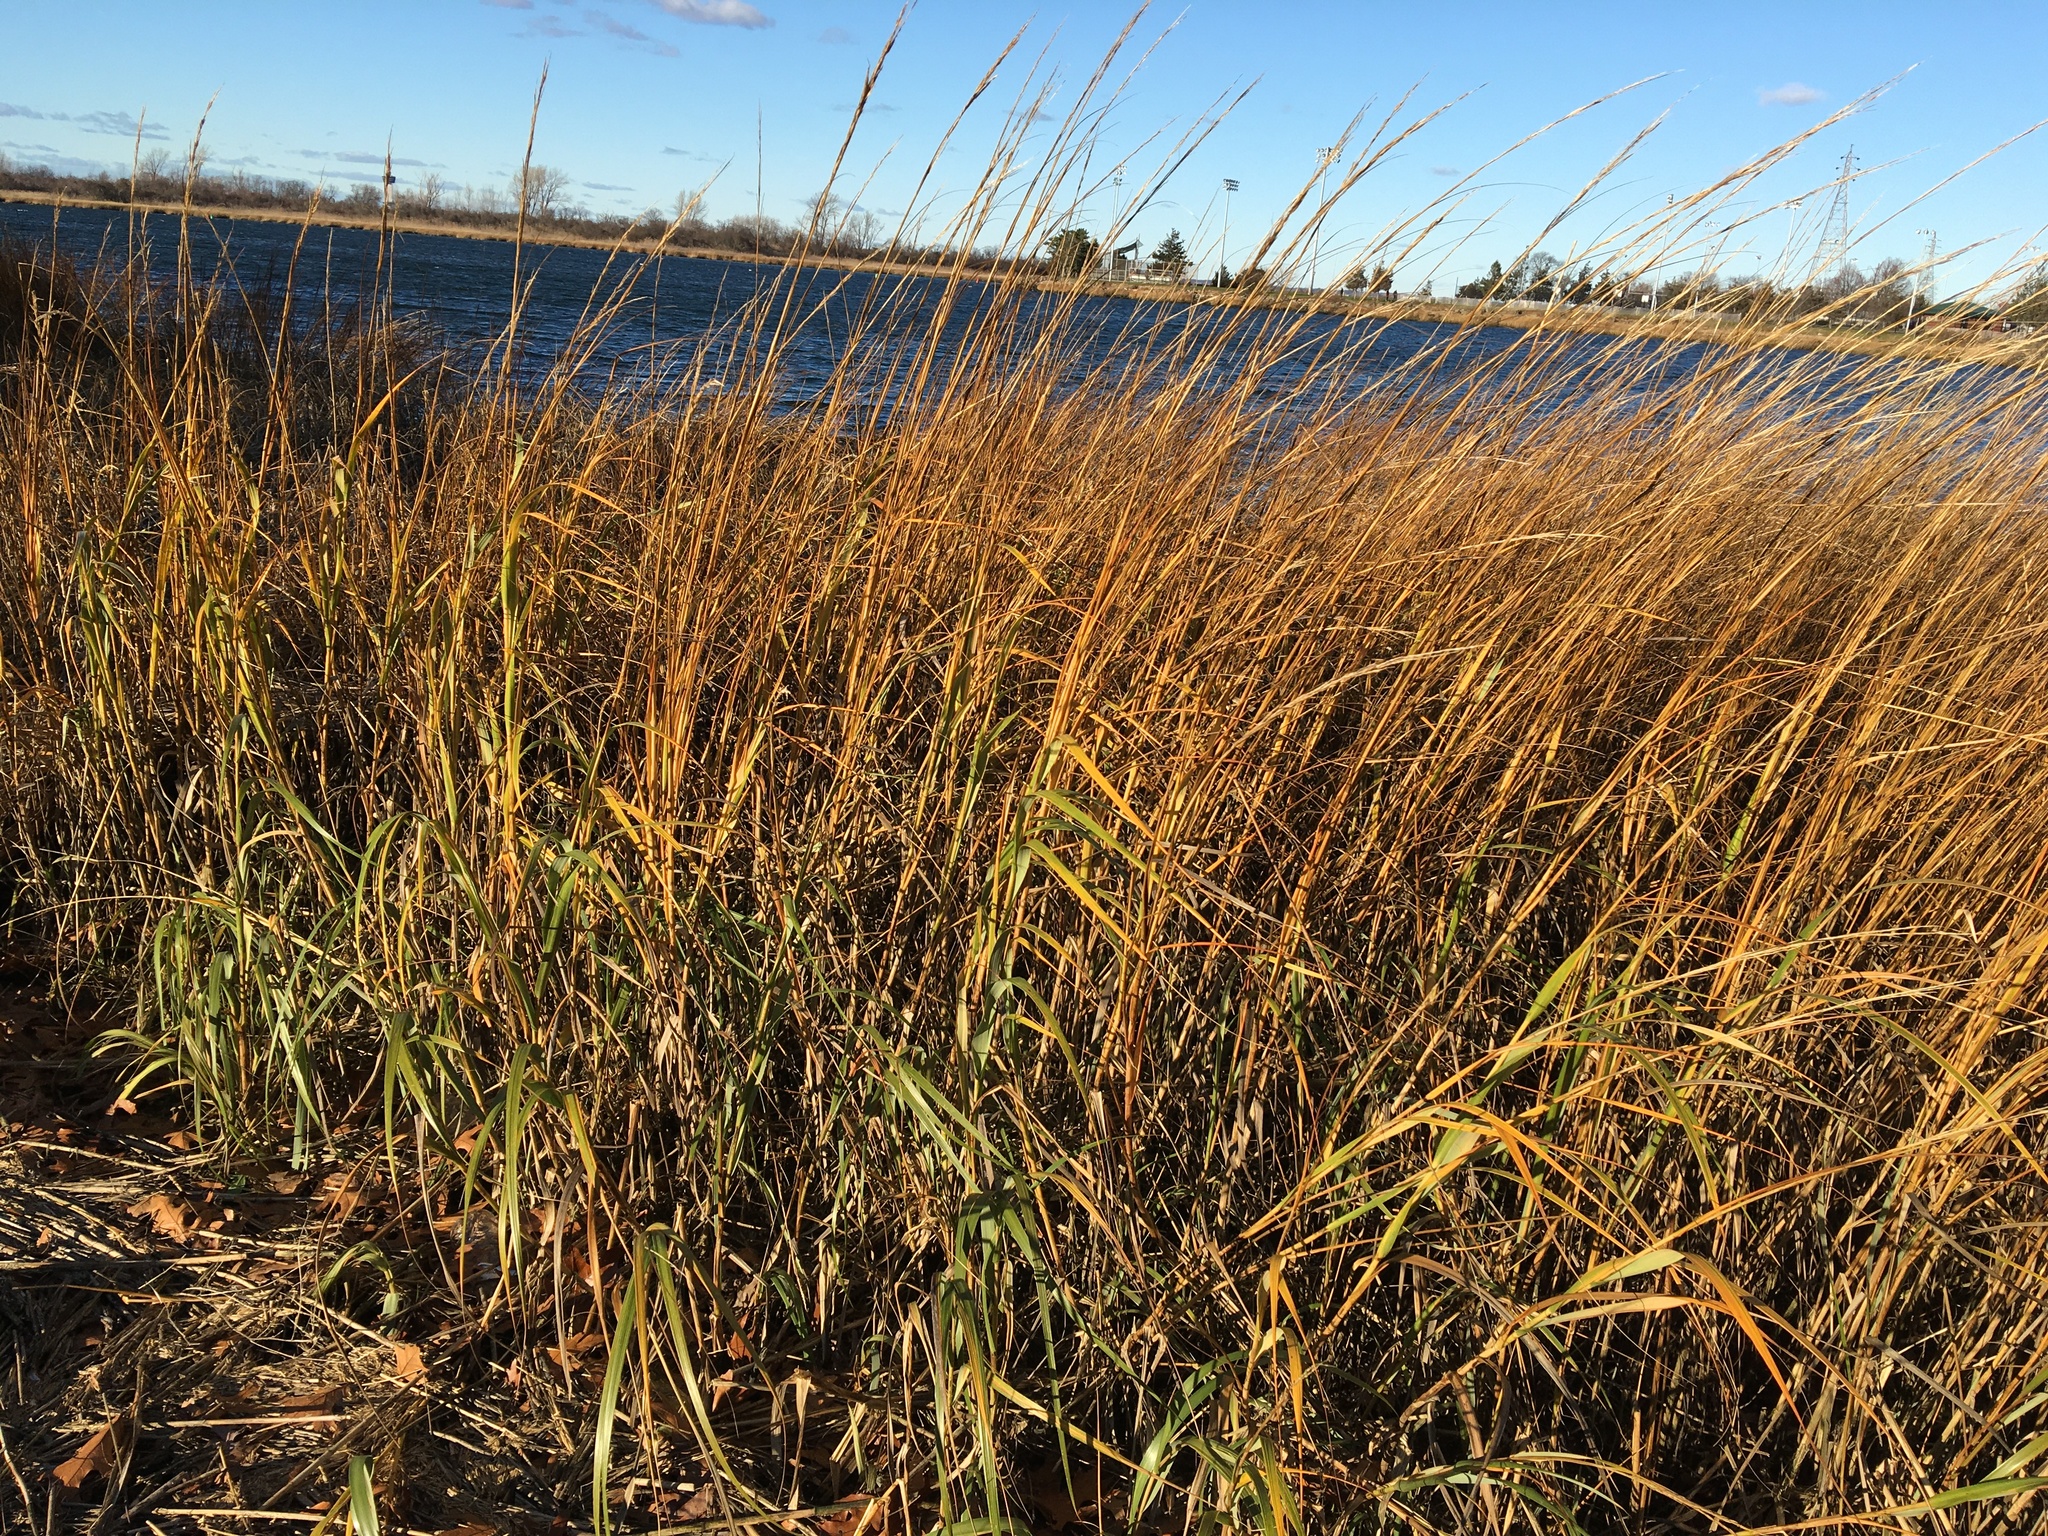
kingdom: Plantae
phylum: Tracheophyta
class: Liliopsida
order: Poales
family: Poaceae
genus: Sporobolus
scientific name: Sporobolus alterniflorus
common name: Atlantic cordgrass
